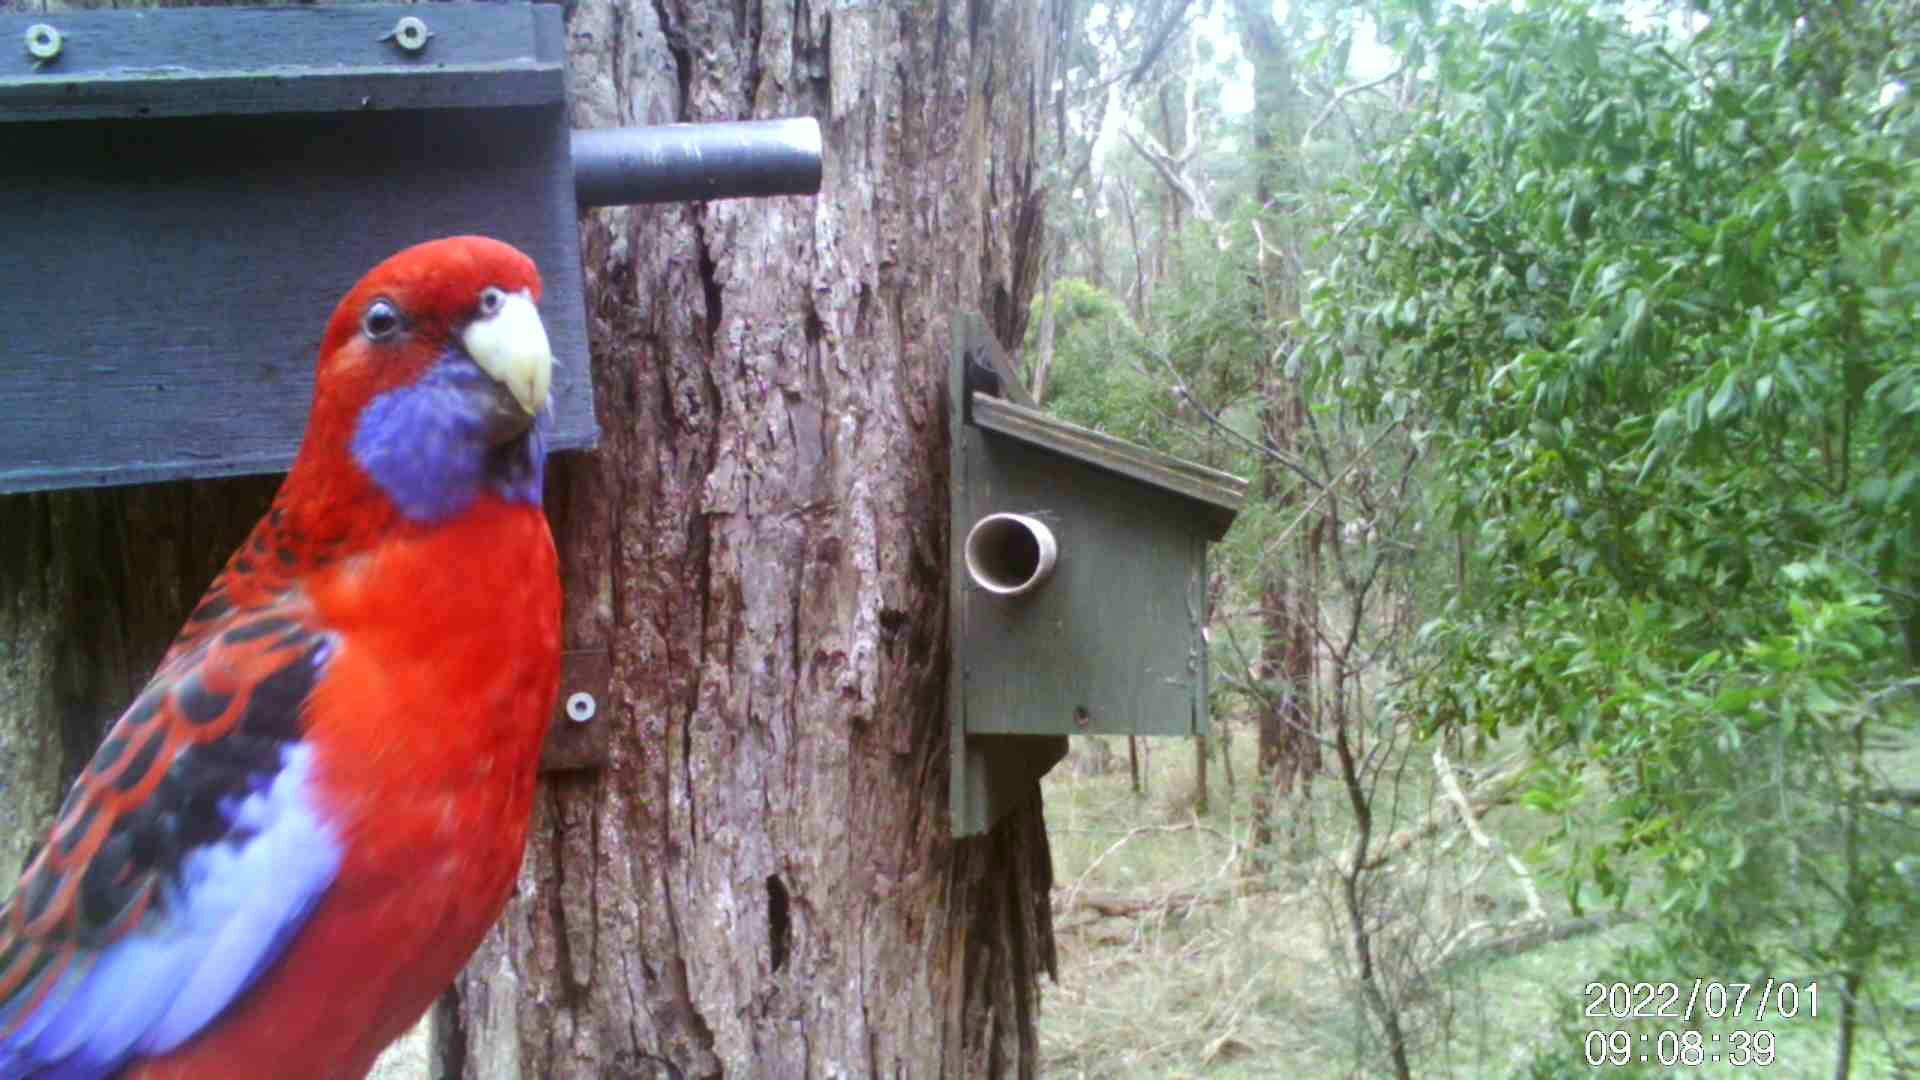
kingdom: Animalia
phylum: Chordata
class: Aves
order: Psittaciformes
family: Psittacidae
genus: Platycercus
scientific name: Platycercus elegans
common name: Crimson rosella
